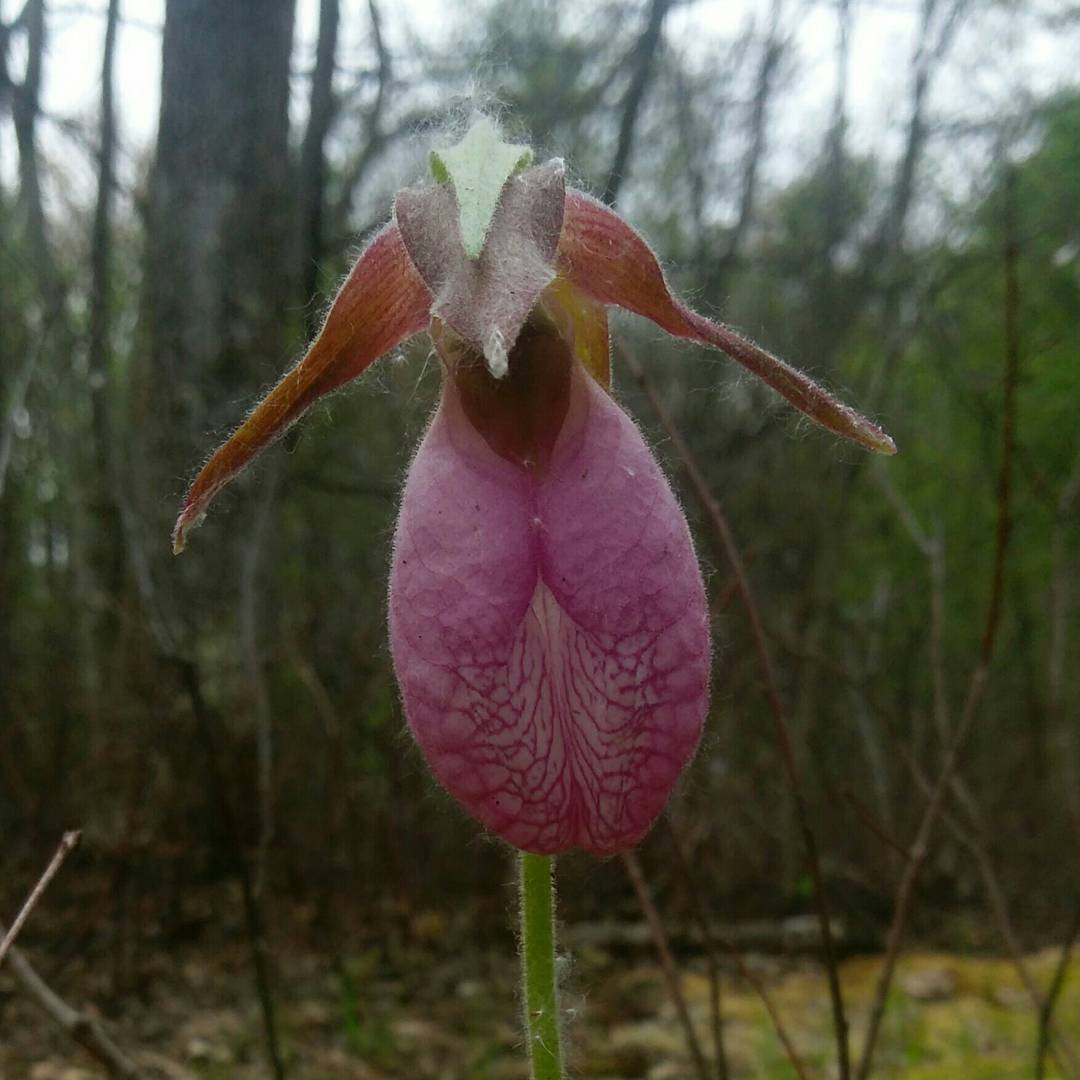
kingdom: Plantae
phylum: Tracheophyta
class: Liliopsida
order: Asparagales
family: Orchidaceae
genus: Cypripedium
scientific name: Cypripedium acaule
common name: Pink lady's-slipper
